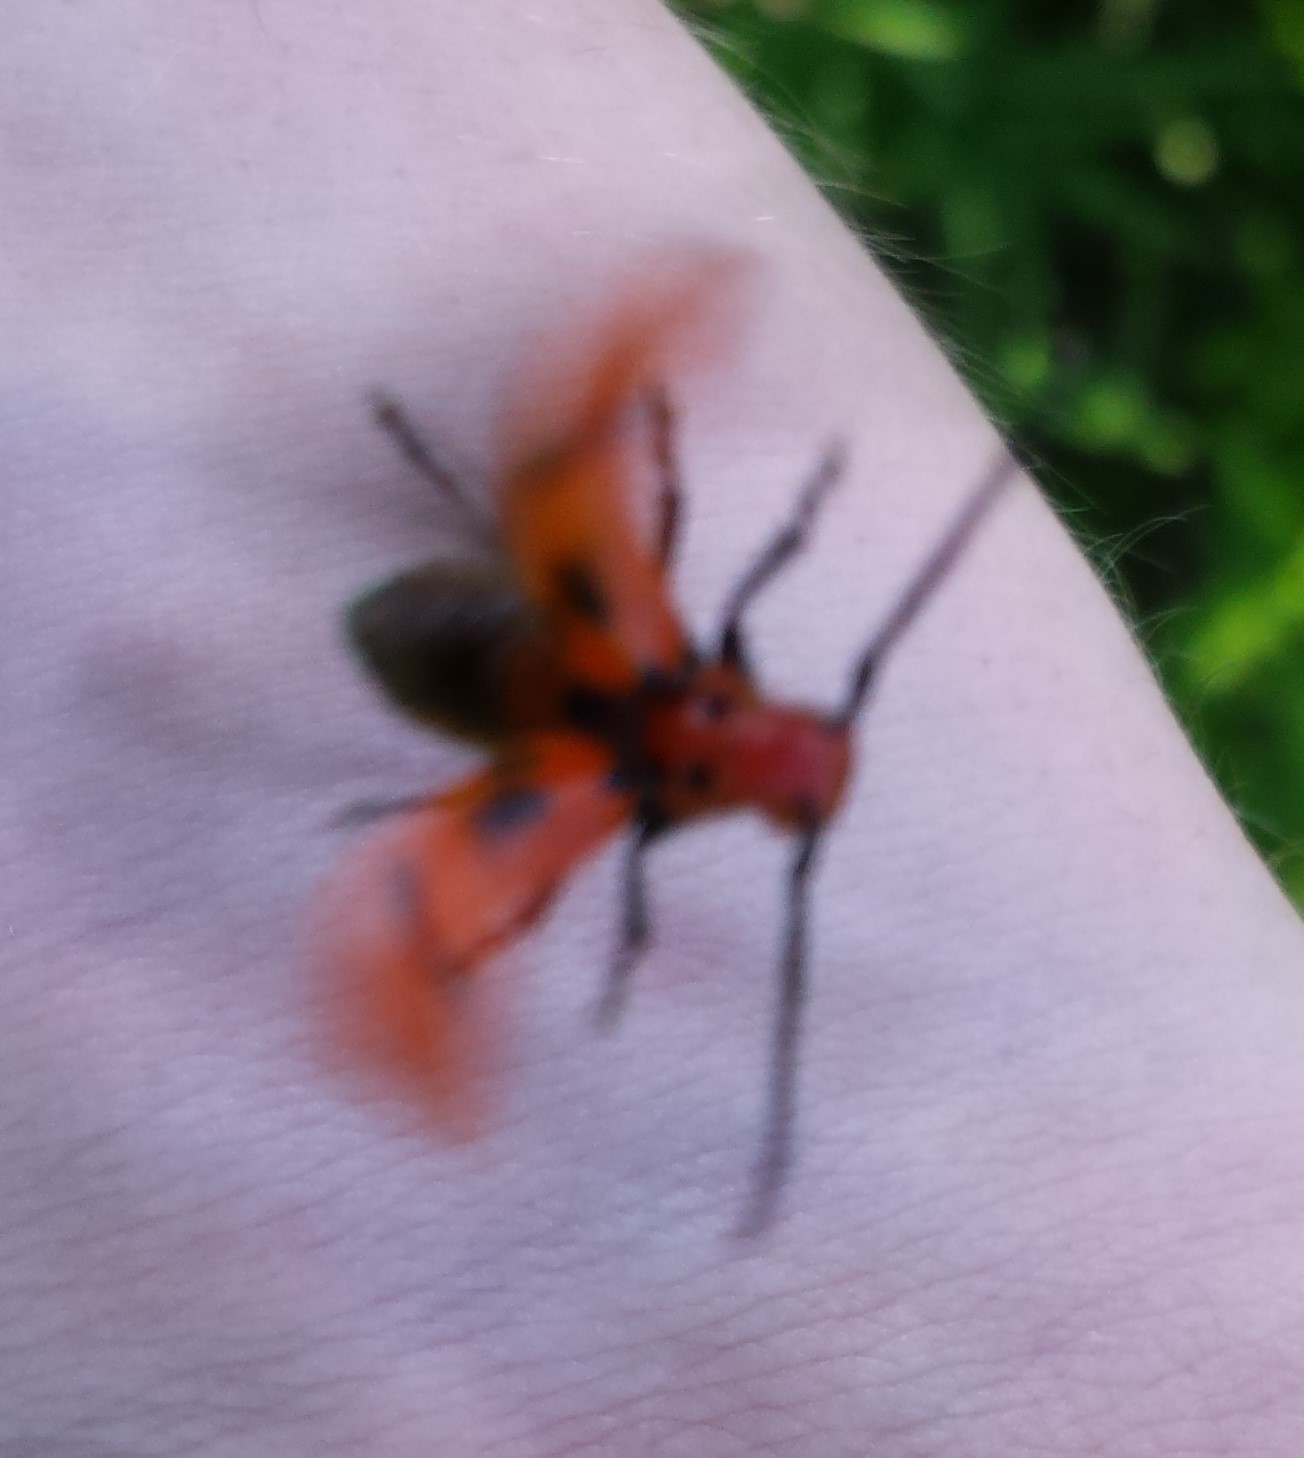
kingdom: Animalia
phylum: Arthropoda
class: Insecta
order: Coleoptera
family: Cerambycidae
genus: Tetraopes
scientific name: Tetraopes tetrophthalmus
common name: Red milkweed beetle
